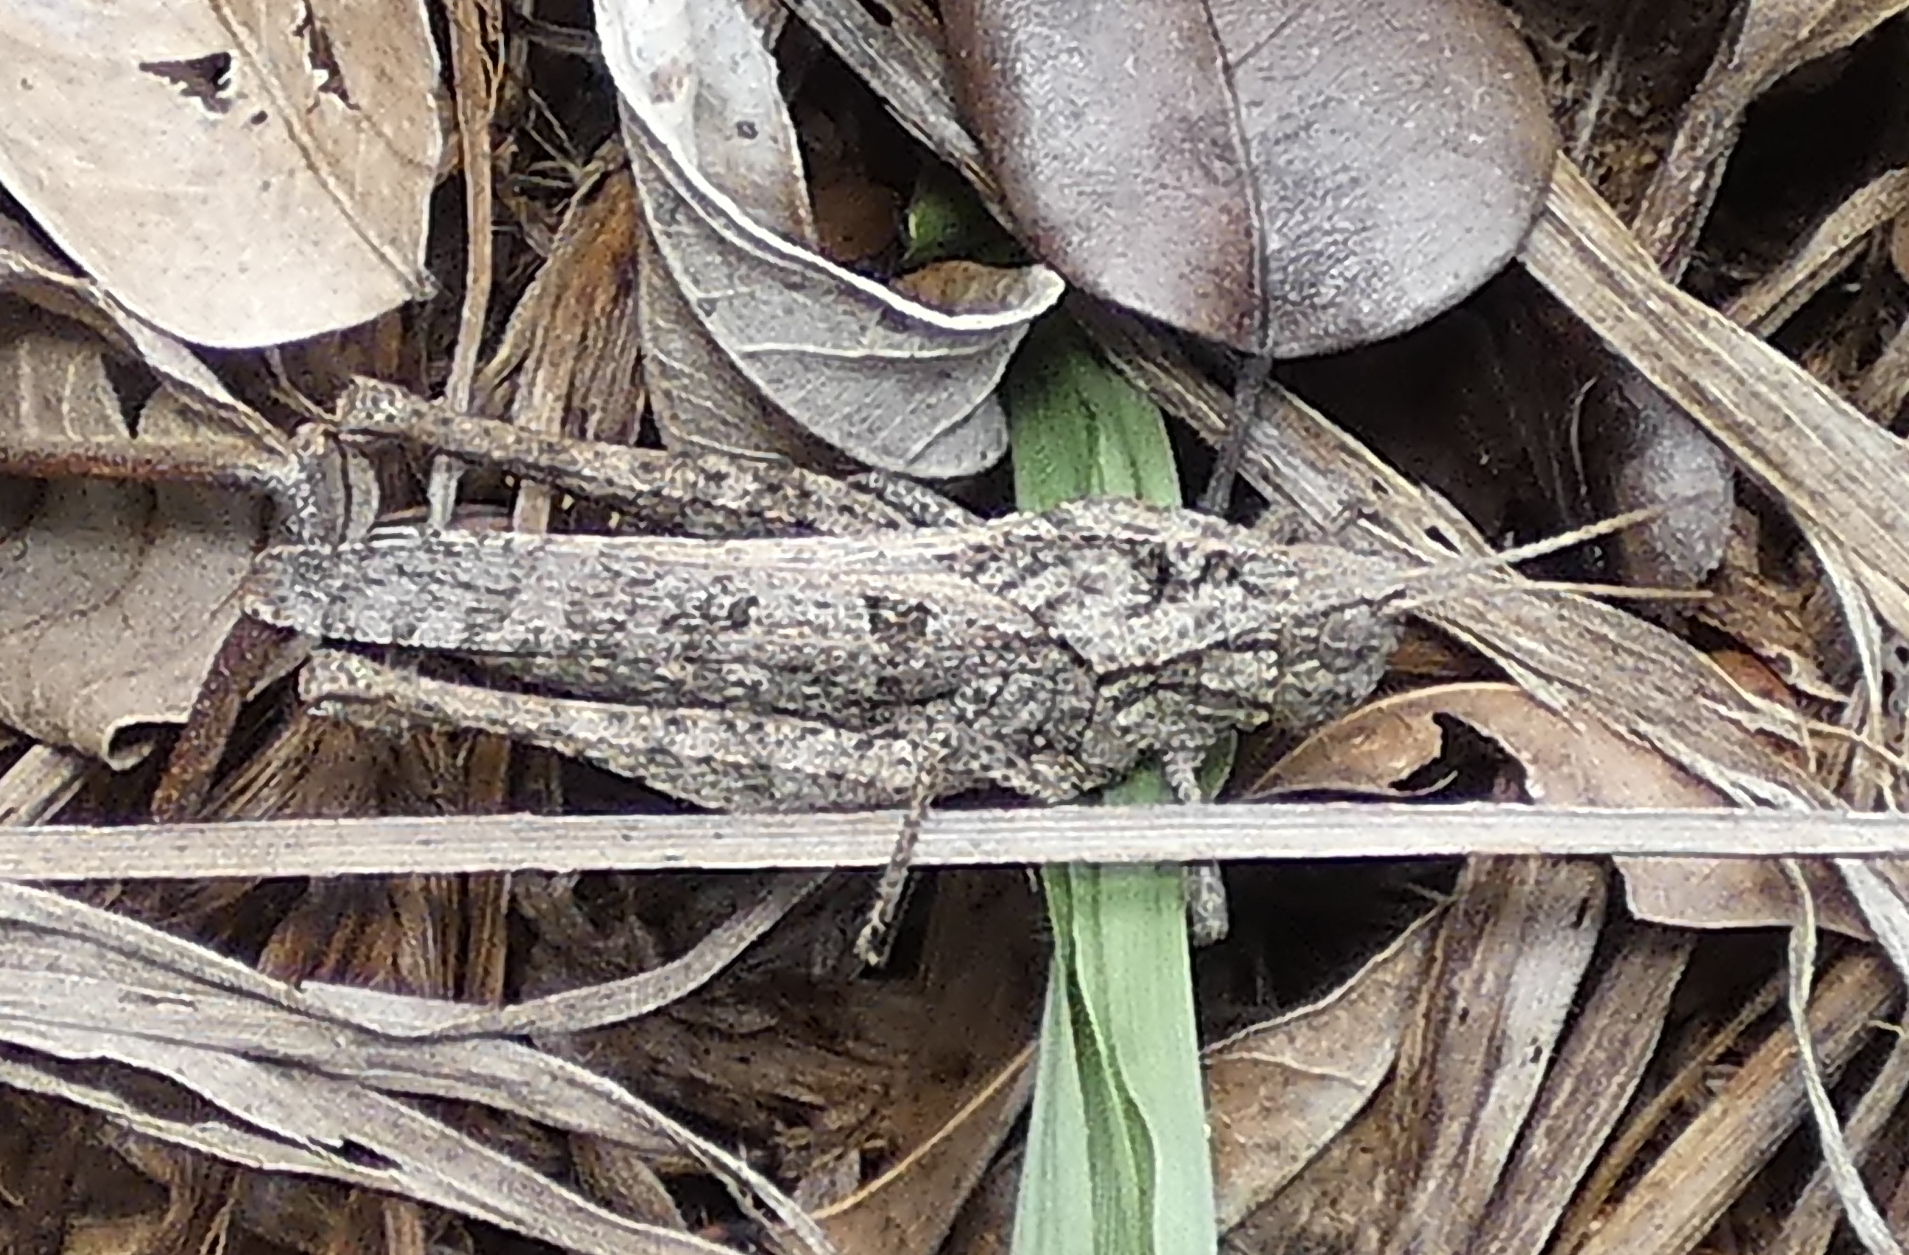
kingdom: Animalia
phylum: Arthropoda
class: Insecta
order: Orthoptera
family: Romaleidae
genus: Xyleus
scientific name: Xyleus discoideus
